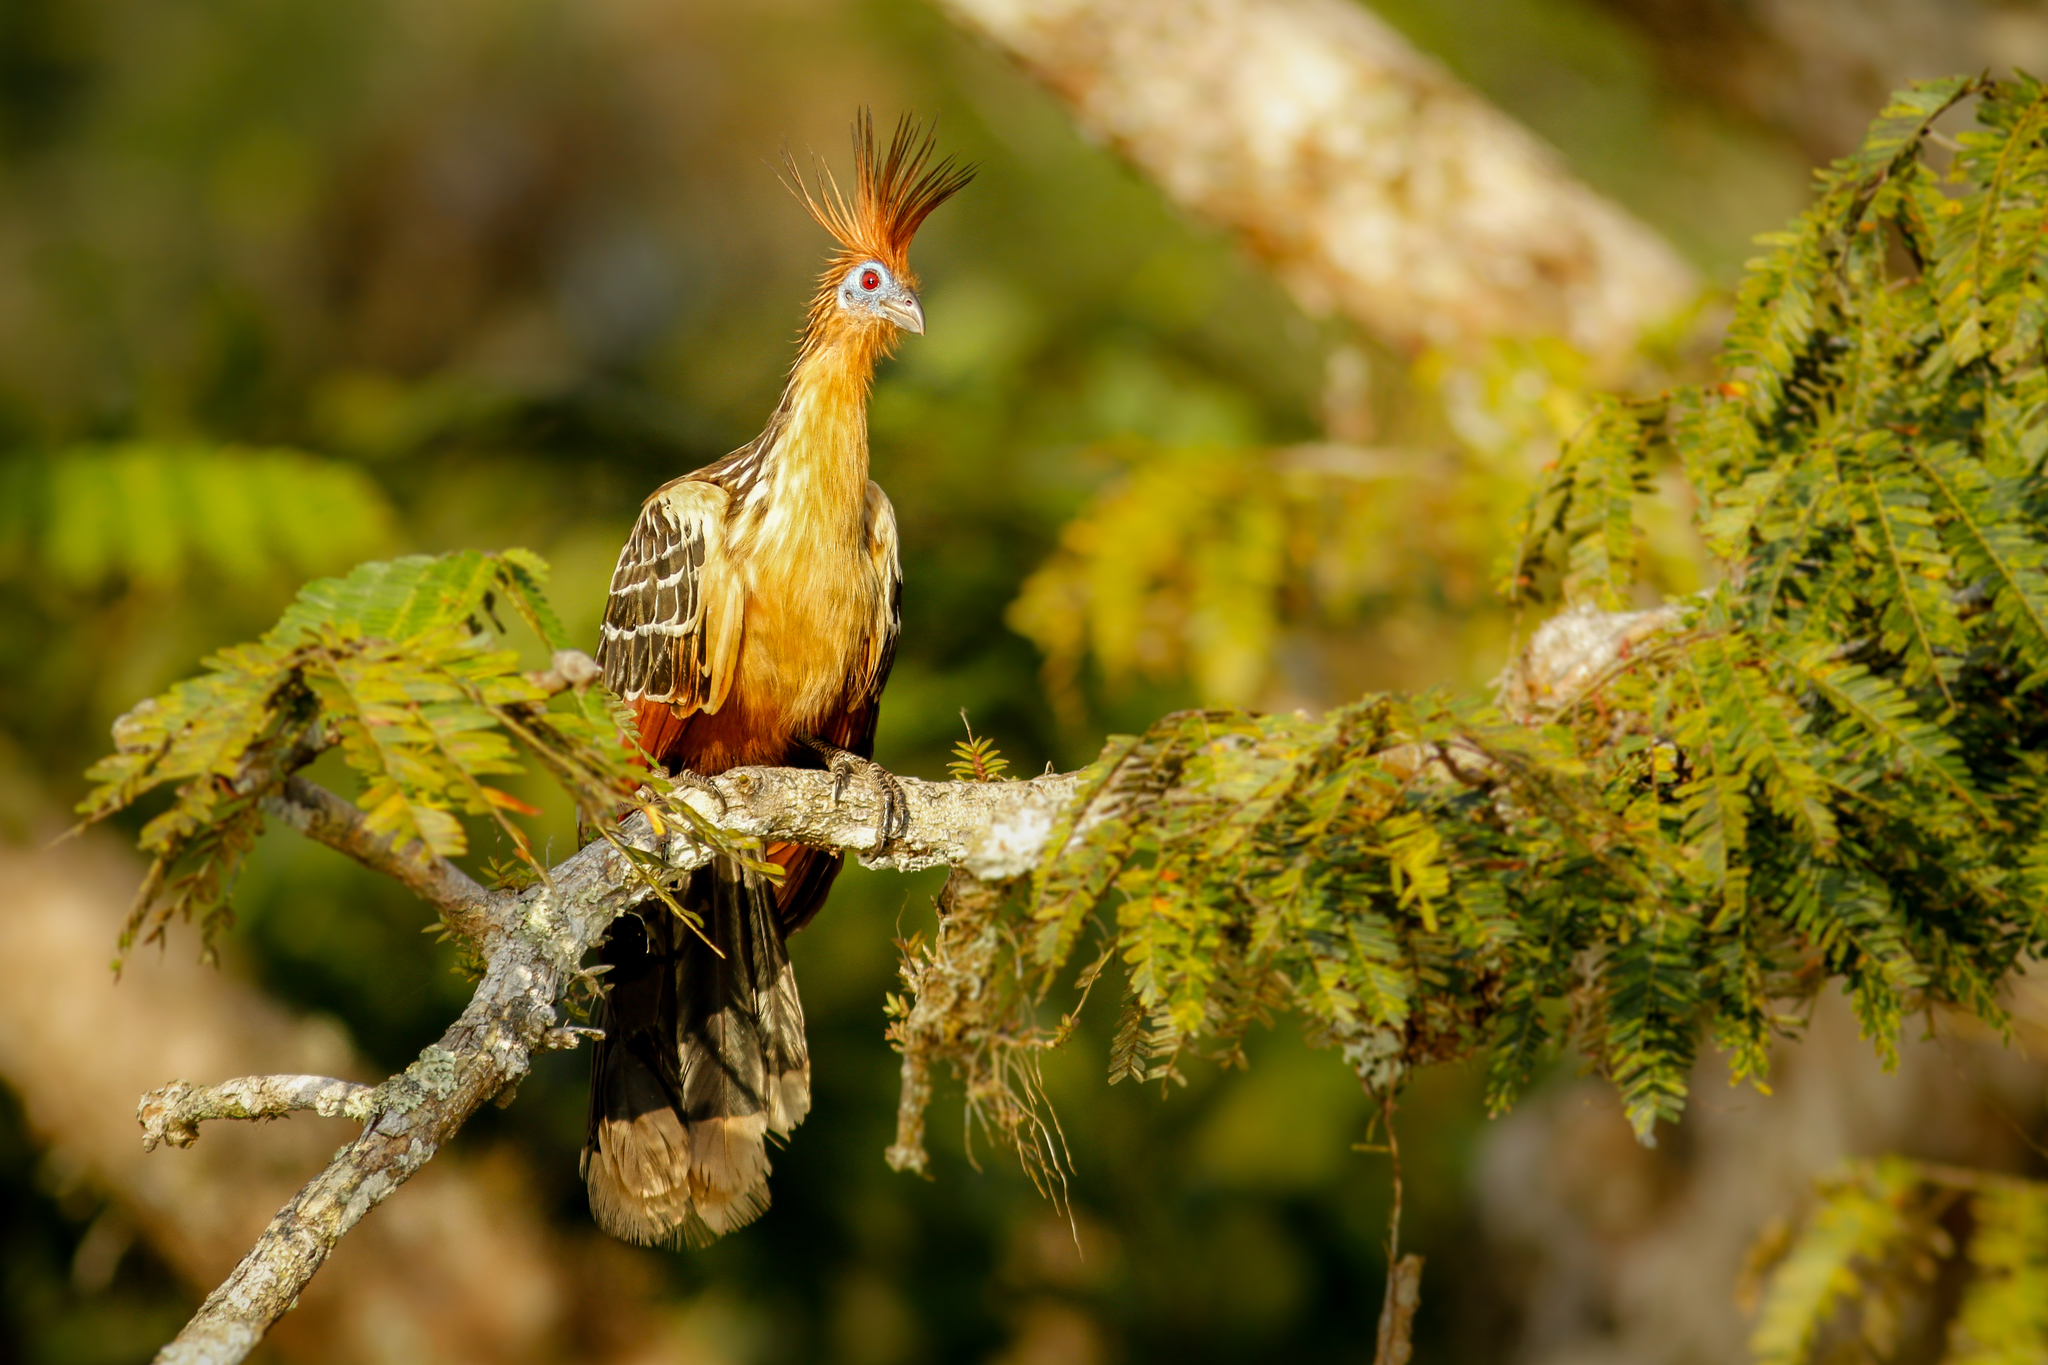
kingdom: Animalia
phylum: Chordata
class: Aves
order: Opisthocomiformes
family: Opisthocomidae
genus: Opisthocomus
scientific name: Opisthocomus hoazin
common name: Hoatzin
